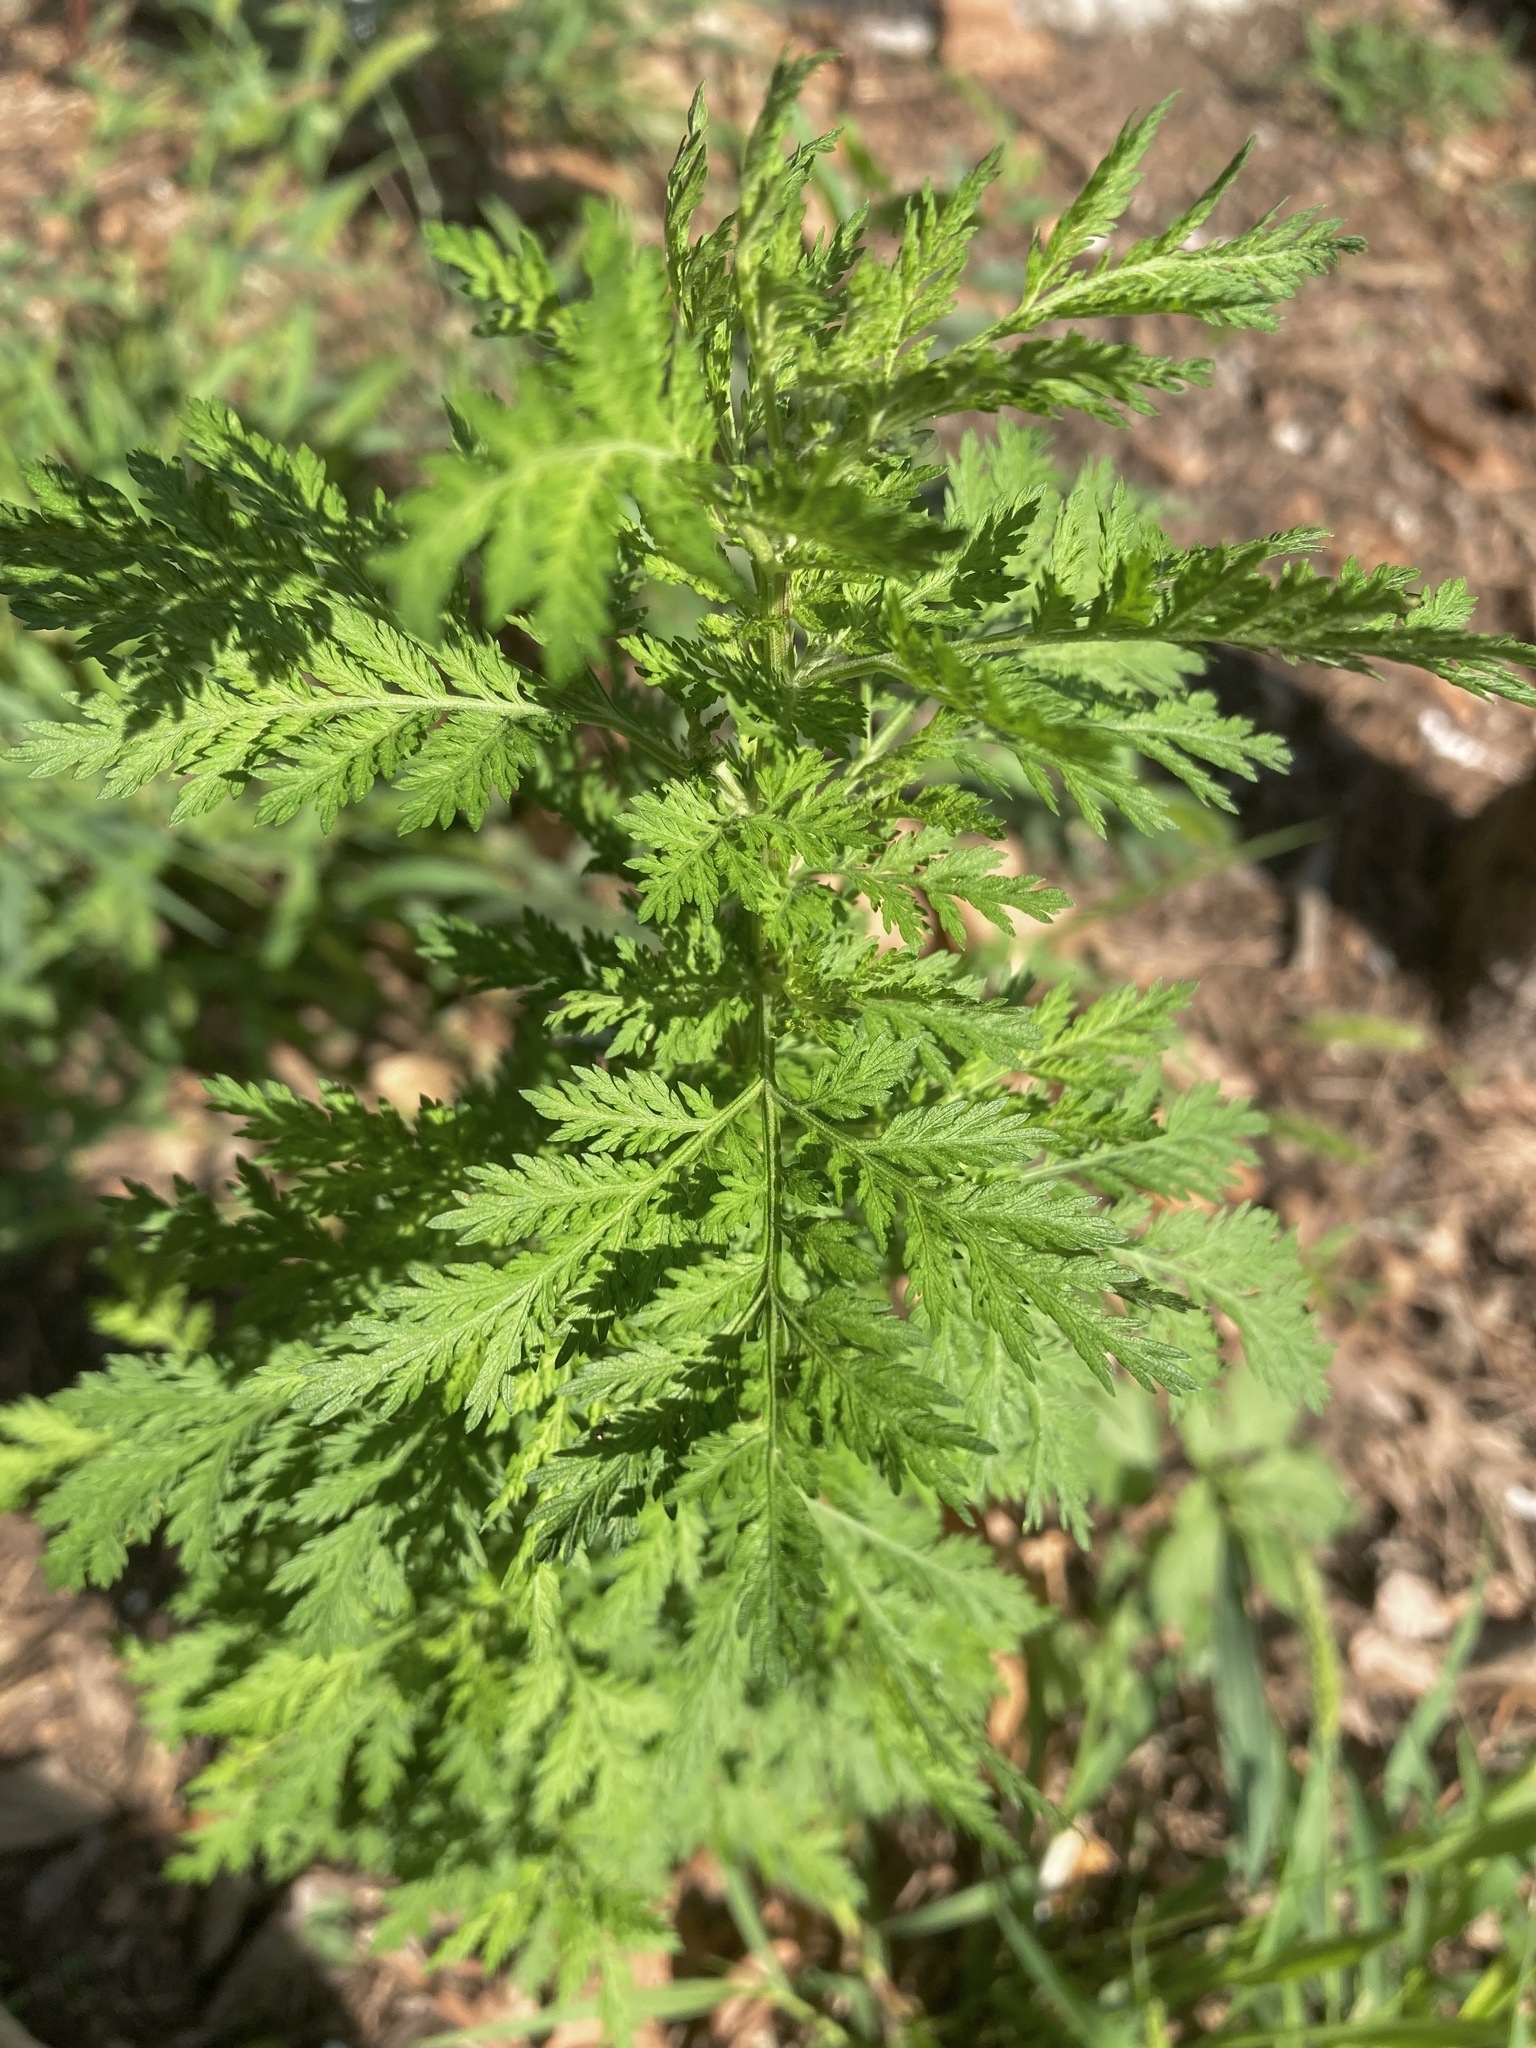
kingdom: Plantae
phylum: Tracheophyta
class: Magnoliopsida
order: Asterales
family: Asteraceae
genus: Artemisia
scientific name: Artemisia annua
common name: Sweet sagewort
